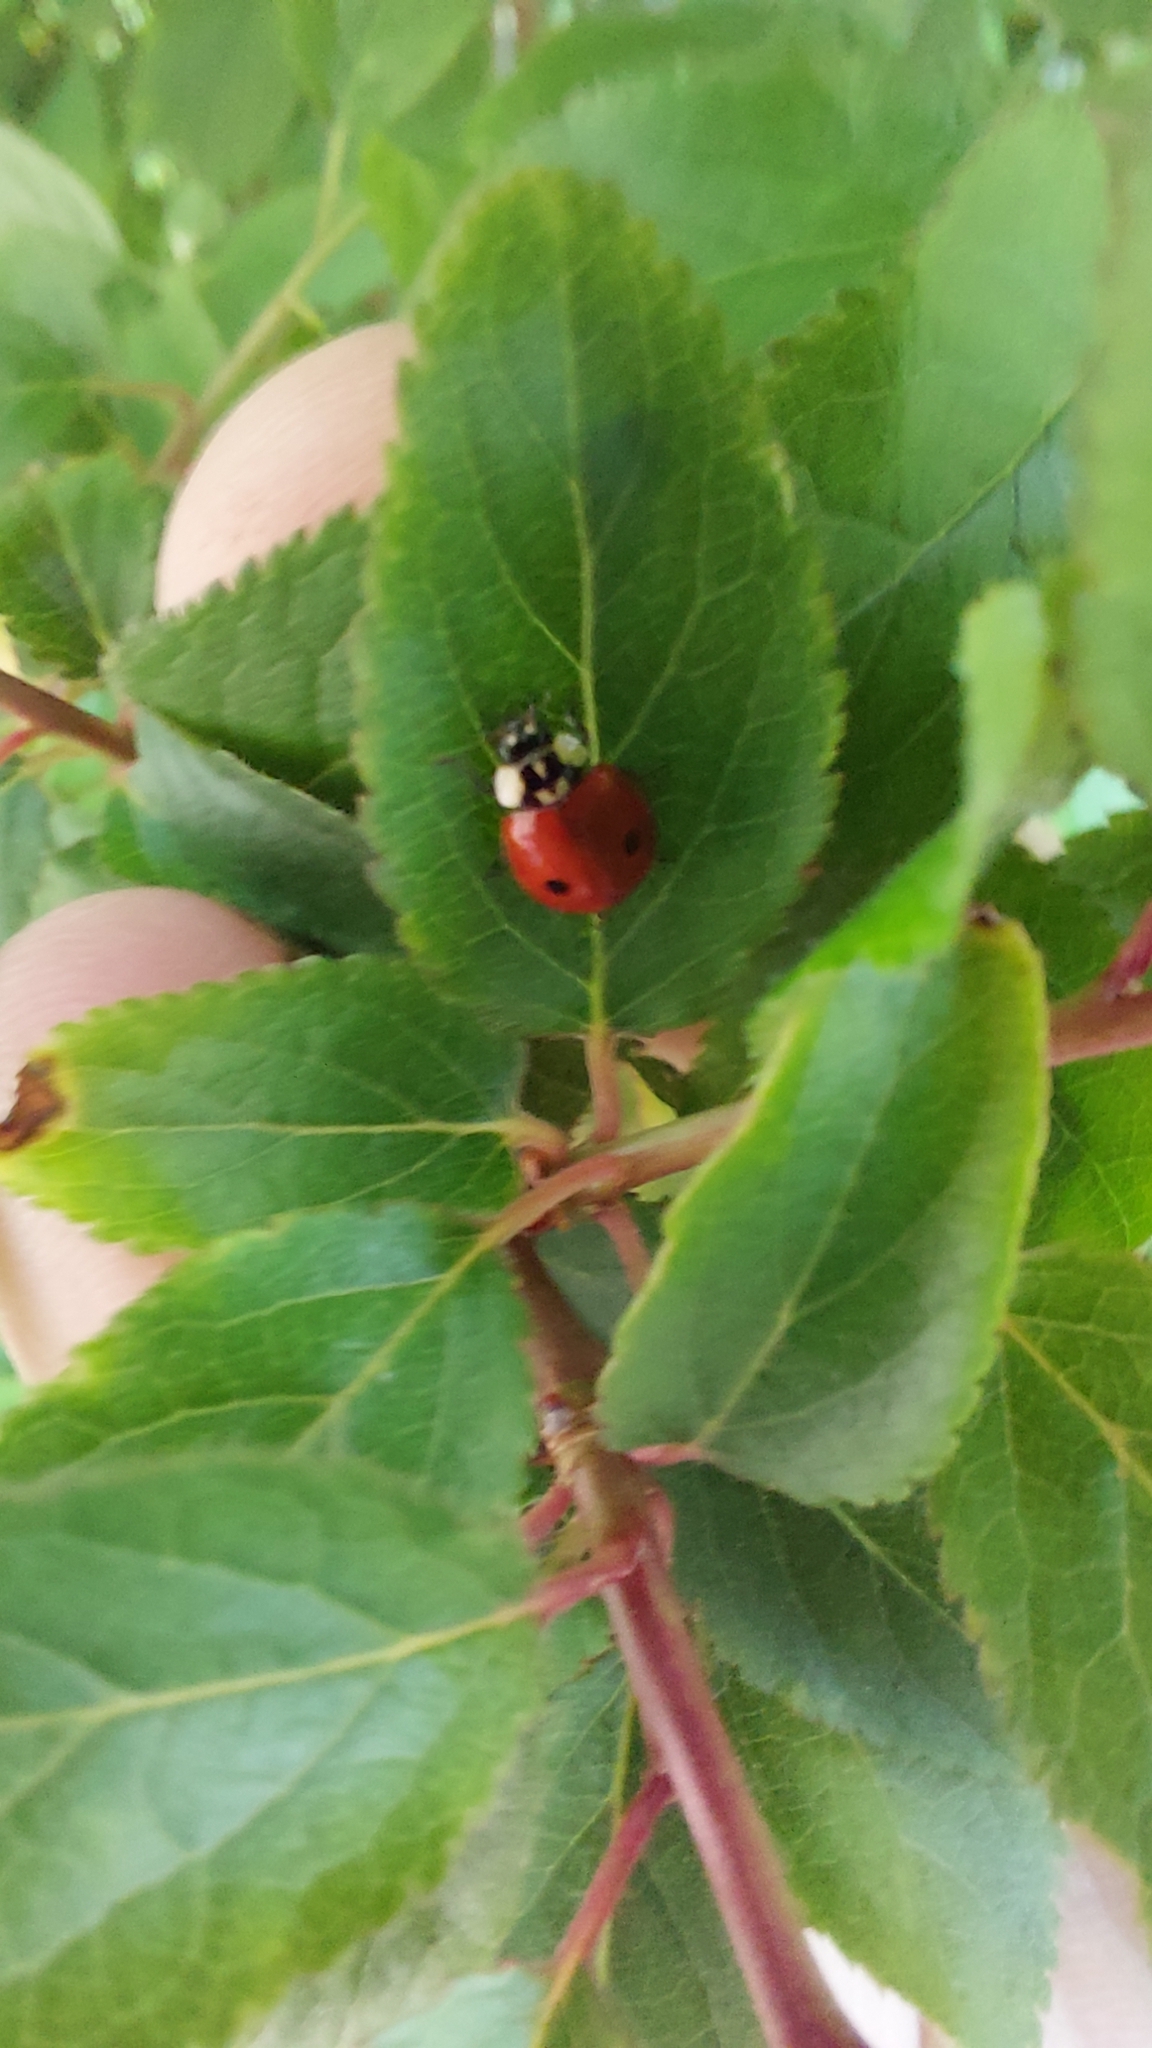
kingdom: Animalia
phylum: Arthropoda
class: Insecta
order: Coleoptera
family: Coccinellidae
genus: Adalia
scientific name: Adalia bipunctata
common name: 2-spot ladybird
